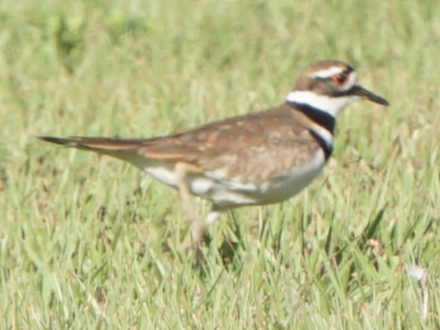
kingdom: Animalia
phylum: Chordata
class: Aves
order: Charadriiformes
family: Charadriidae
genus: Charadrius
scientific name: Charadrius vociferus
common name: Killdeer
